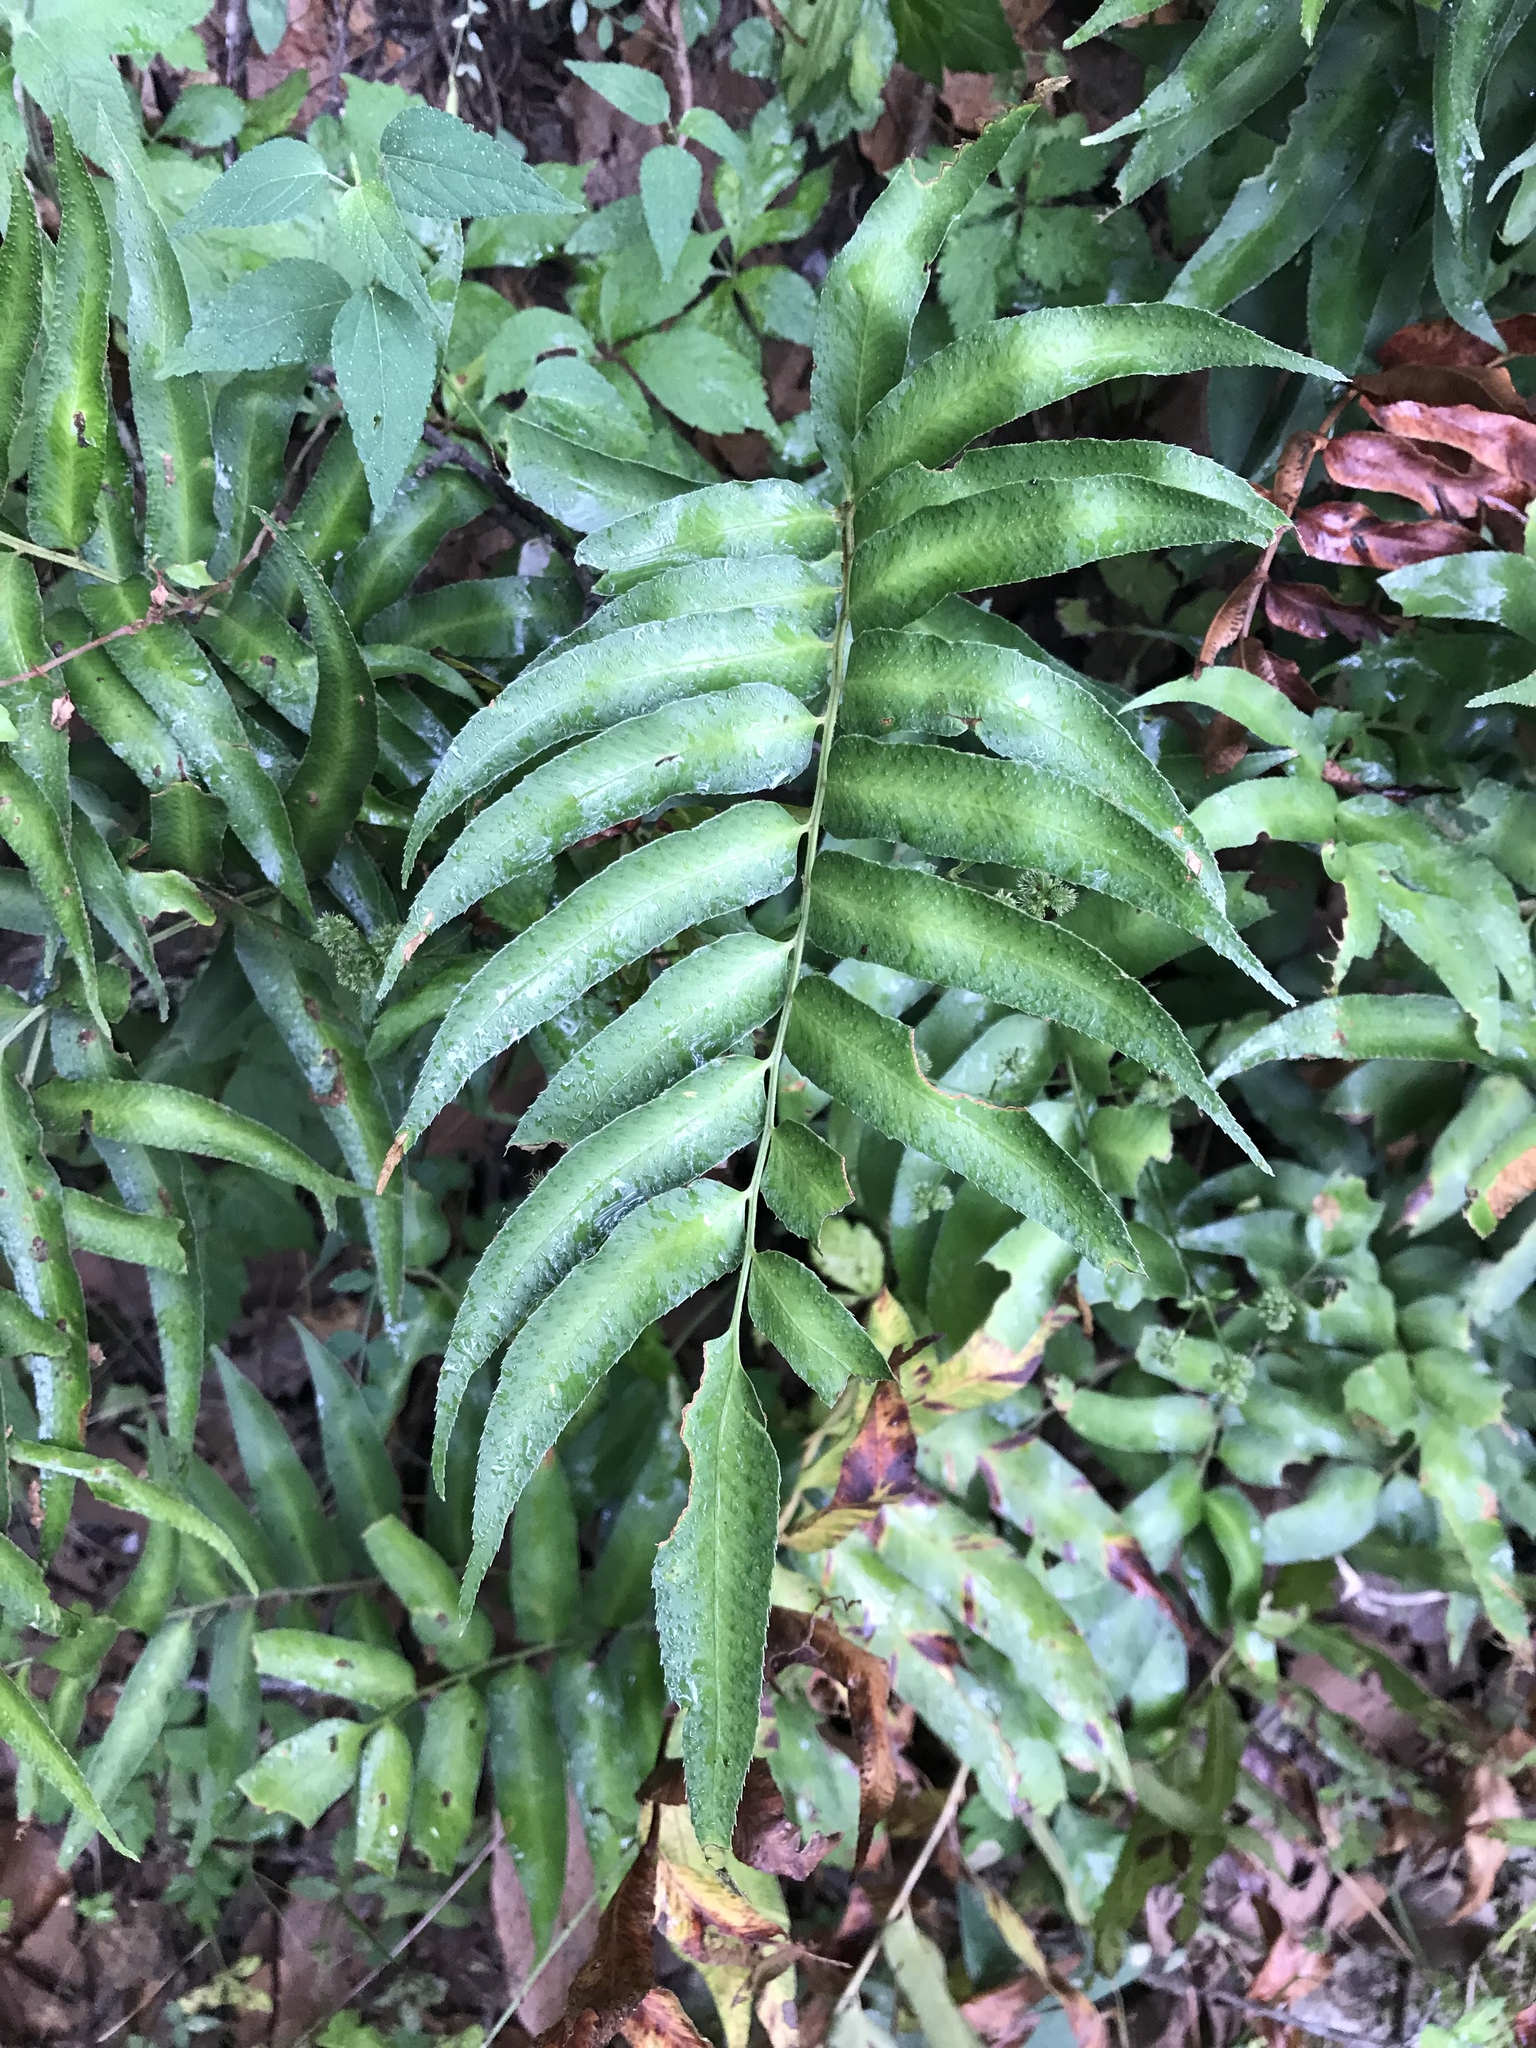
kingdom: Plantae
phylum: Tracheophyta
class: Polypodiopsida
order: Polypodiales
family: Dryopteridaceae
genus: Phanerophlebia
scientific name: Phanerophlebia umbonata
